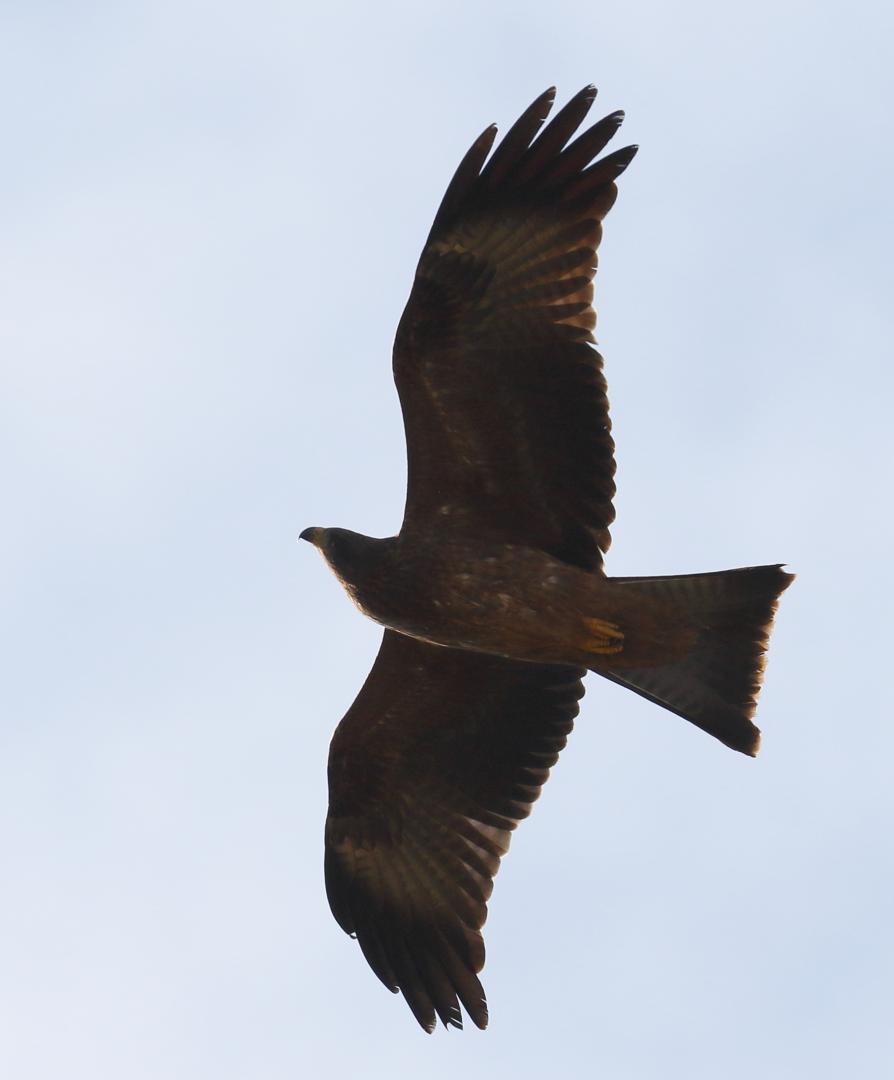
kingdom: Animalia
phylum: Chordata
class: Aves
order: Accipitriformes
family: Accipitridae
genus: Milvus
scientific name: Milvus migrans
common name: Black kite
